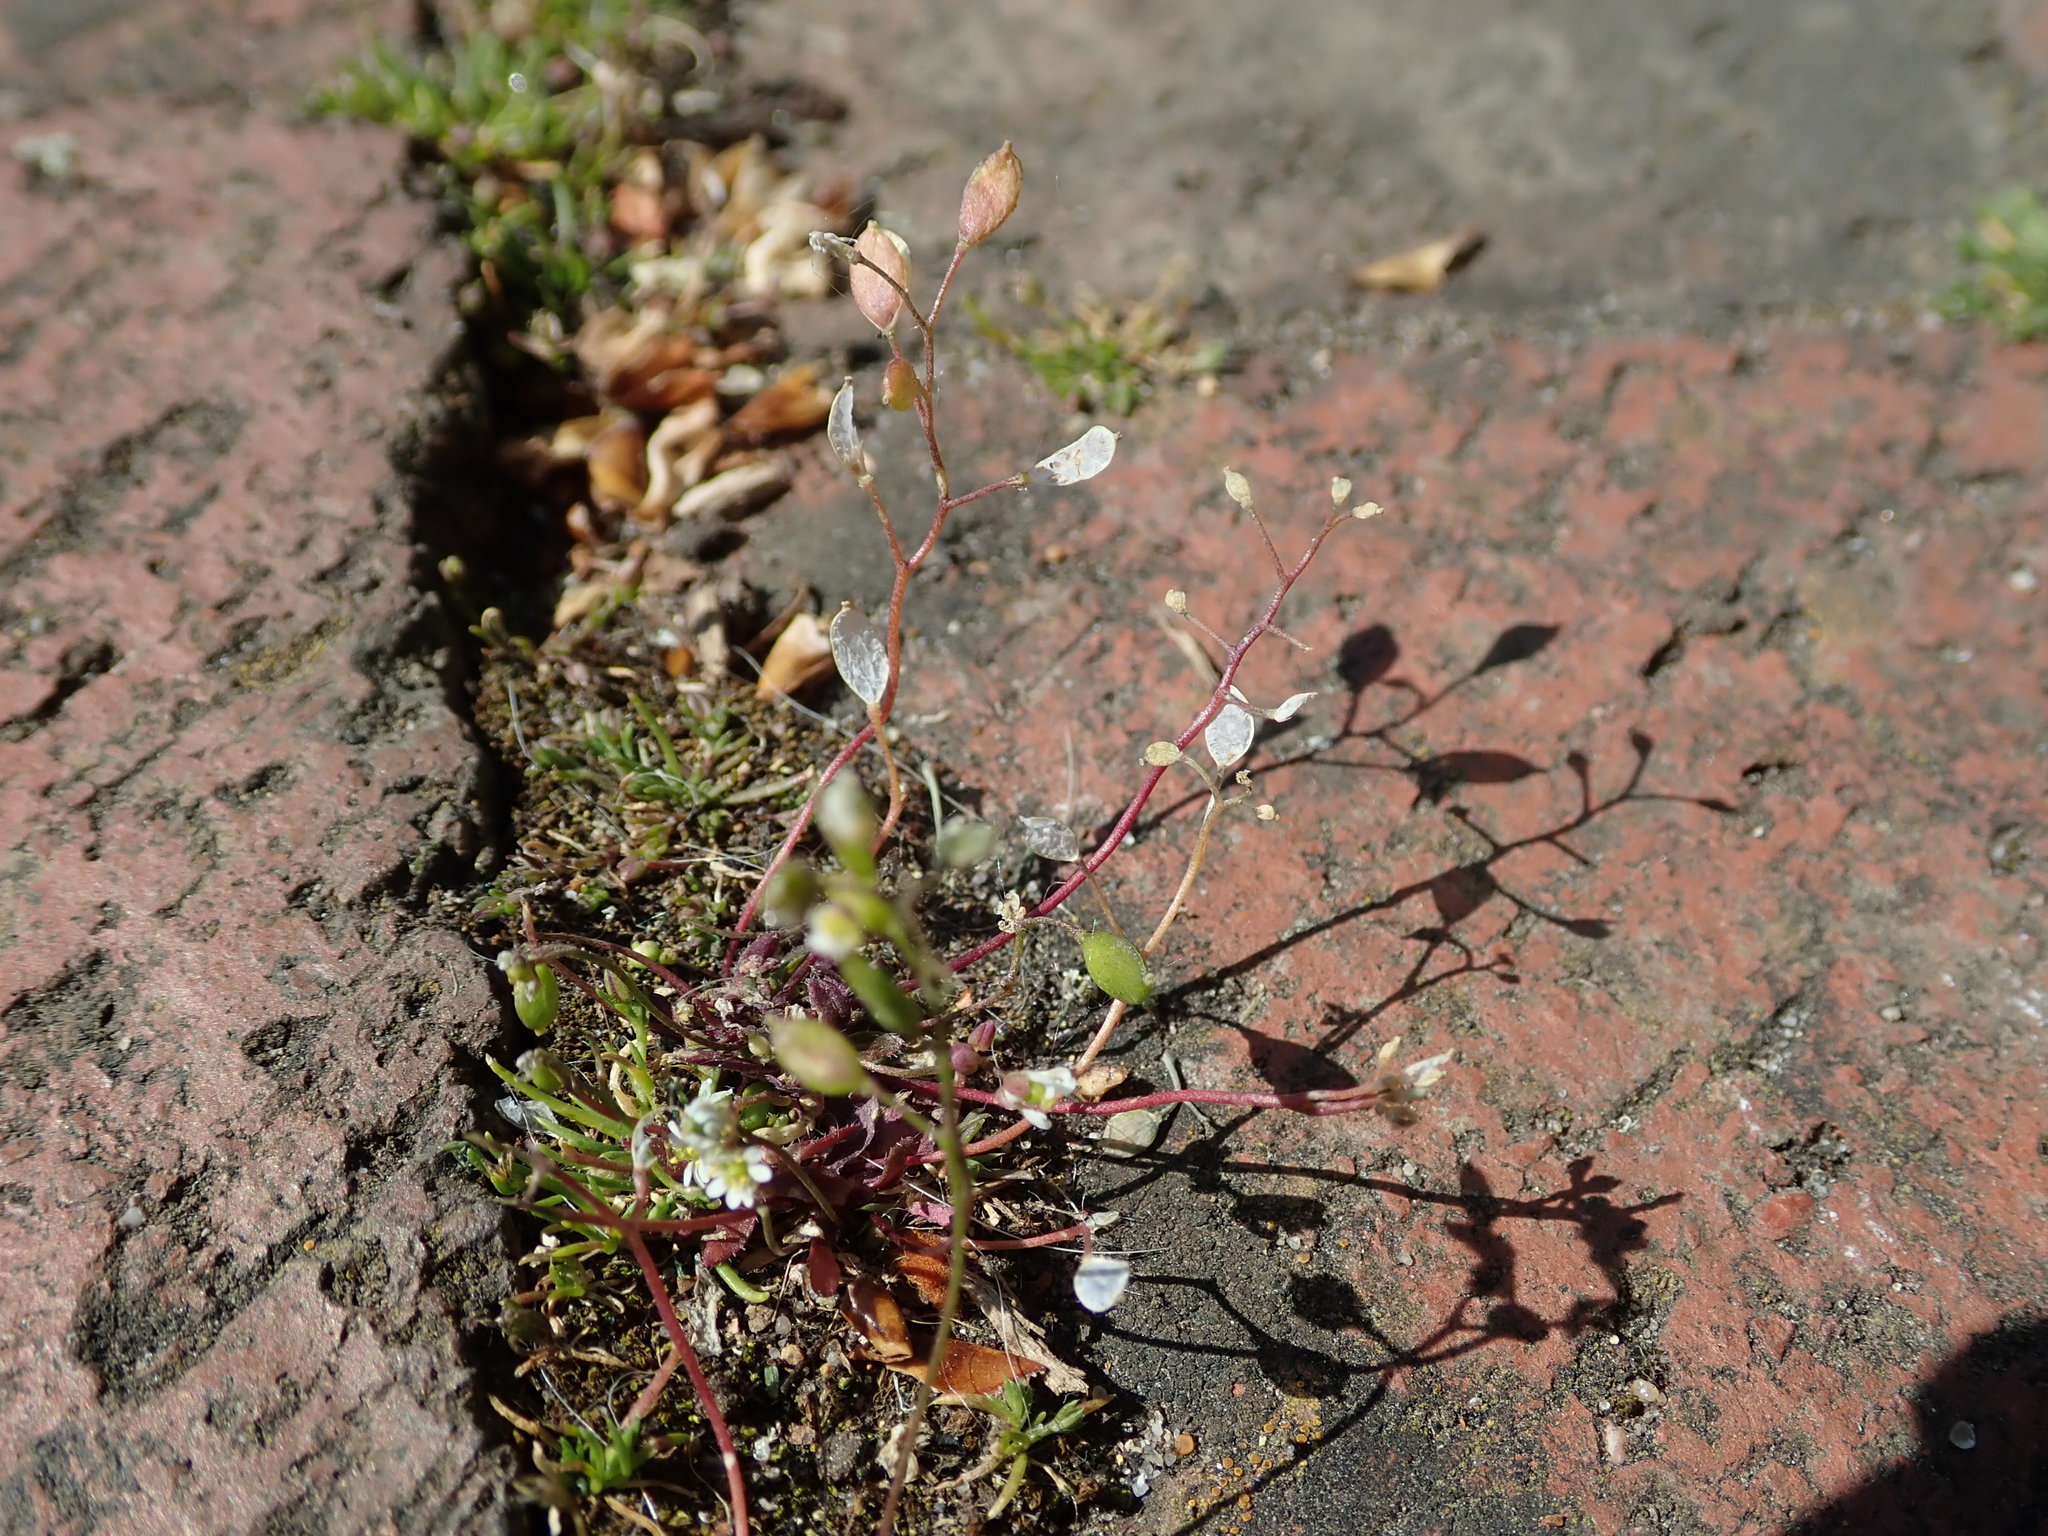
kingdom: Plantae
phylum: Tracheophyta
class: Magnoliopsida
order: Brassicales
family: Brassicaceae
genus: Draba
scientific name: Draba verna
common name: Spring draba
